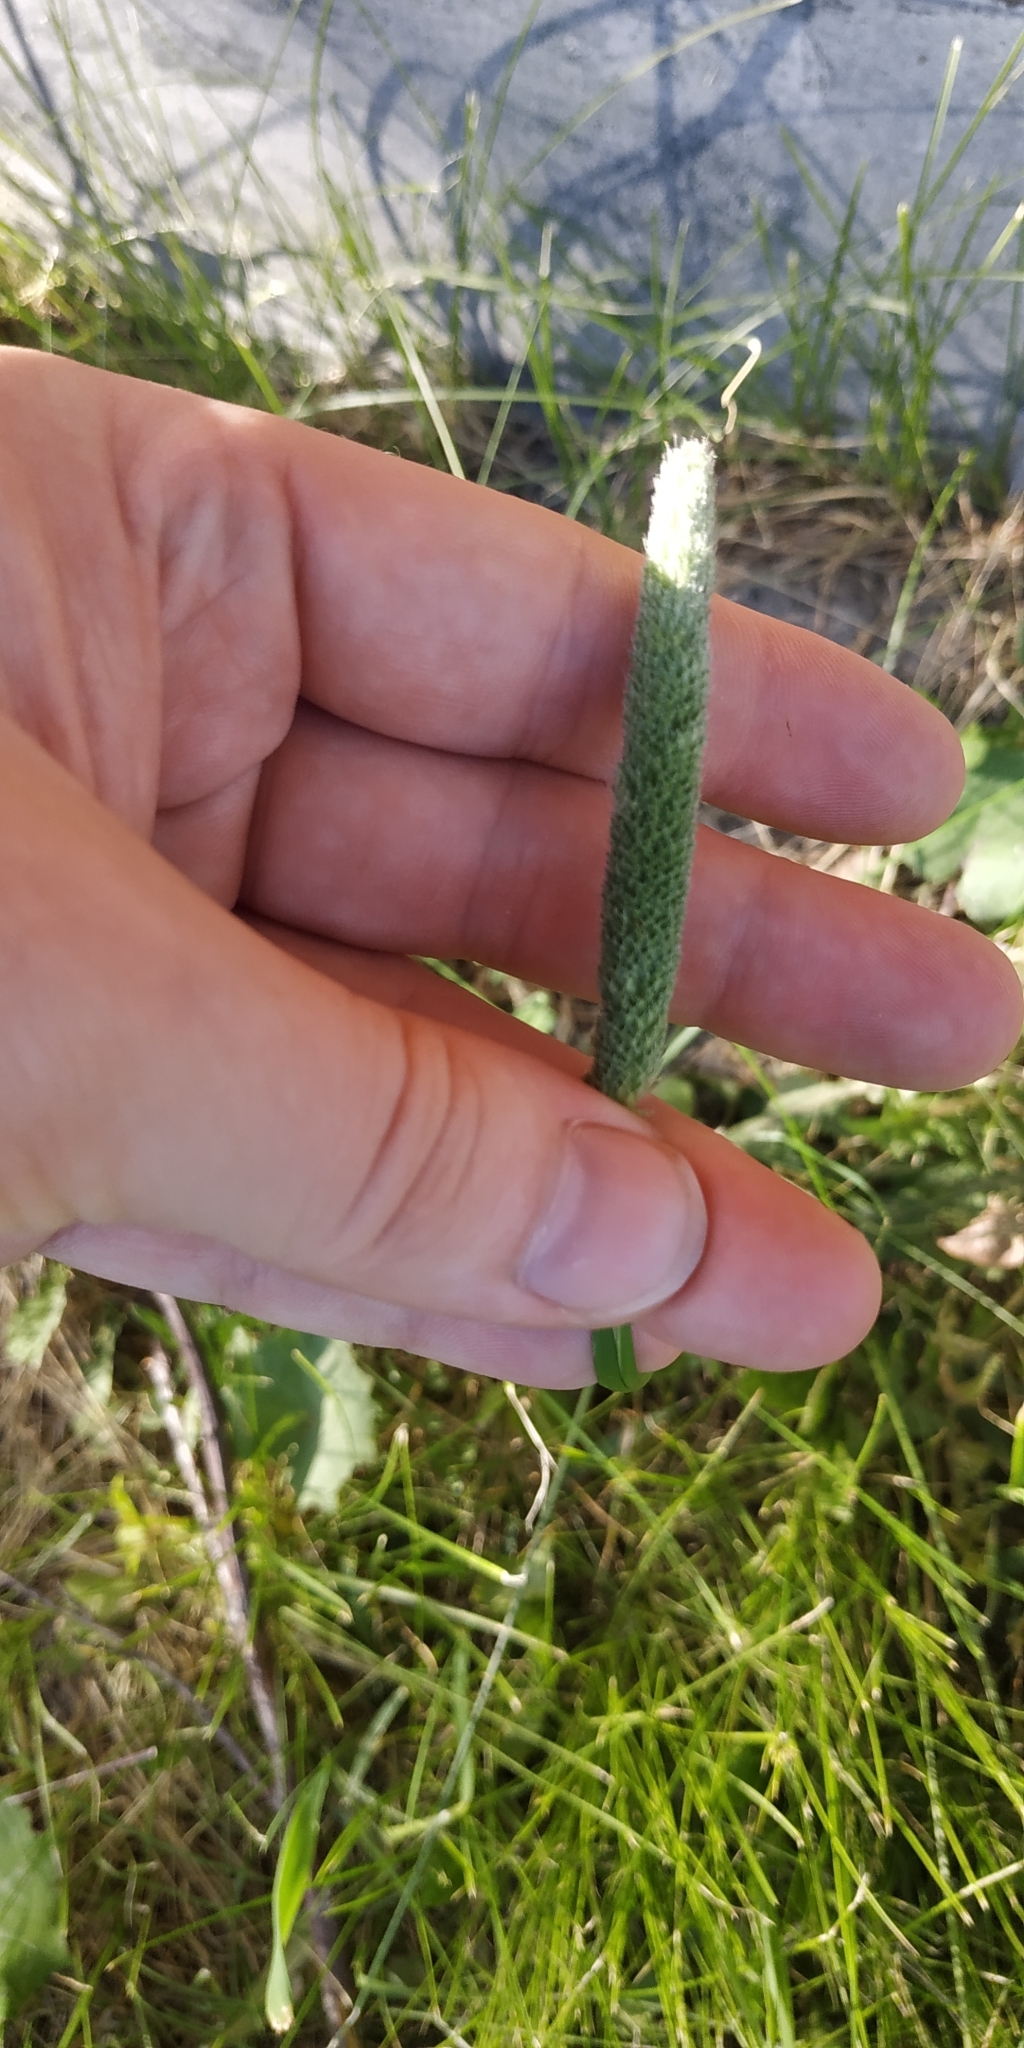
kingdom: Plantae
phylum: Tracheophyta
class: Liliopsida
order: Poales
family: Poaceae
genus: Phleum
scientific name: Phleum pratense
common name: Timothy grass
